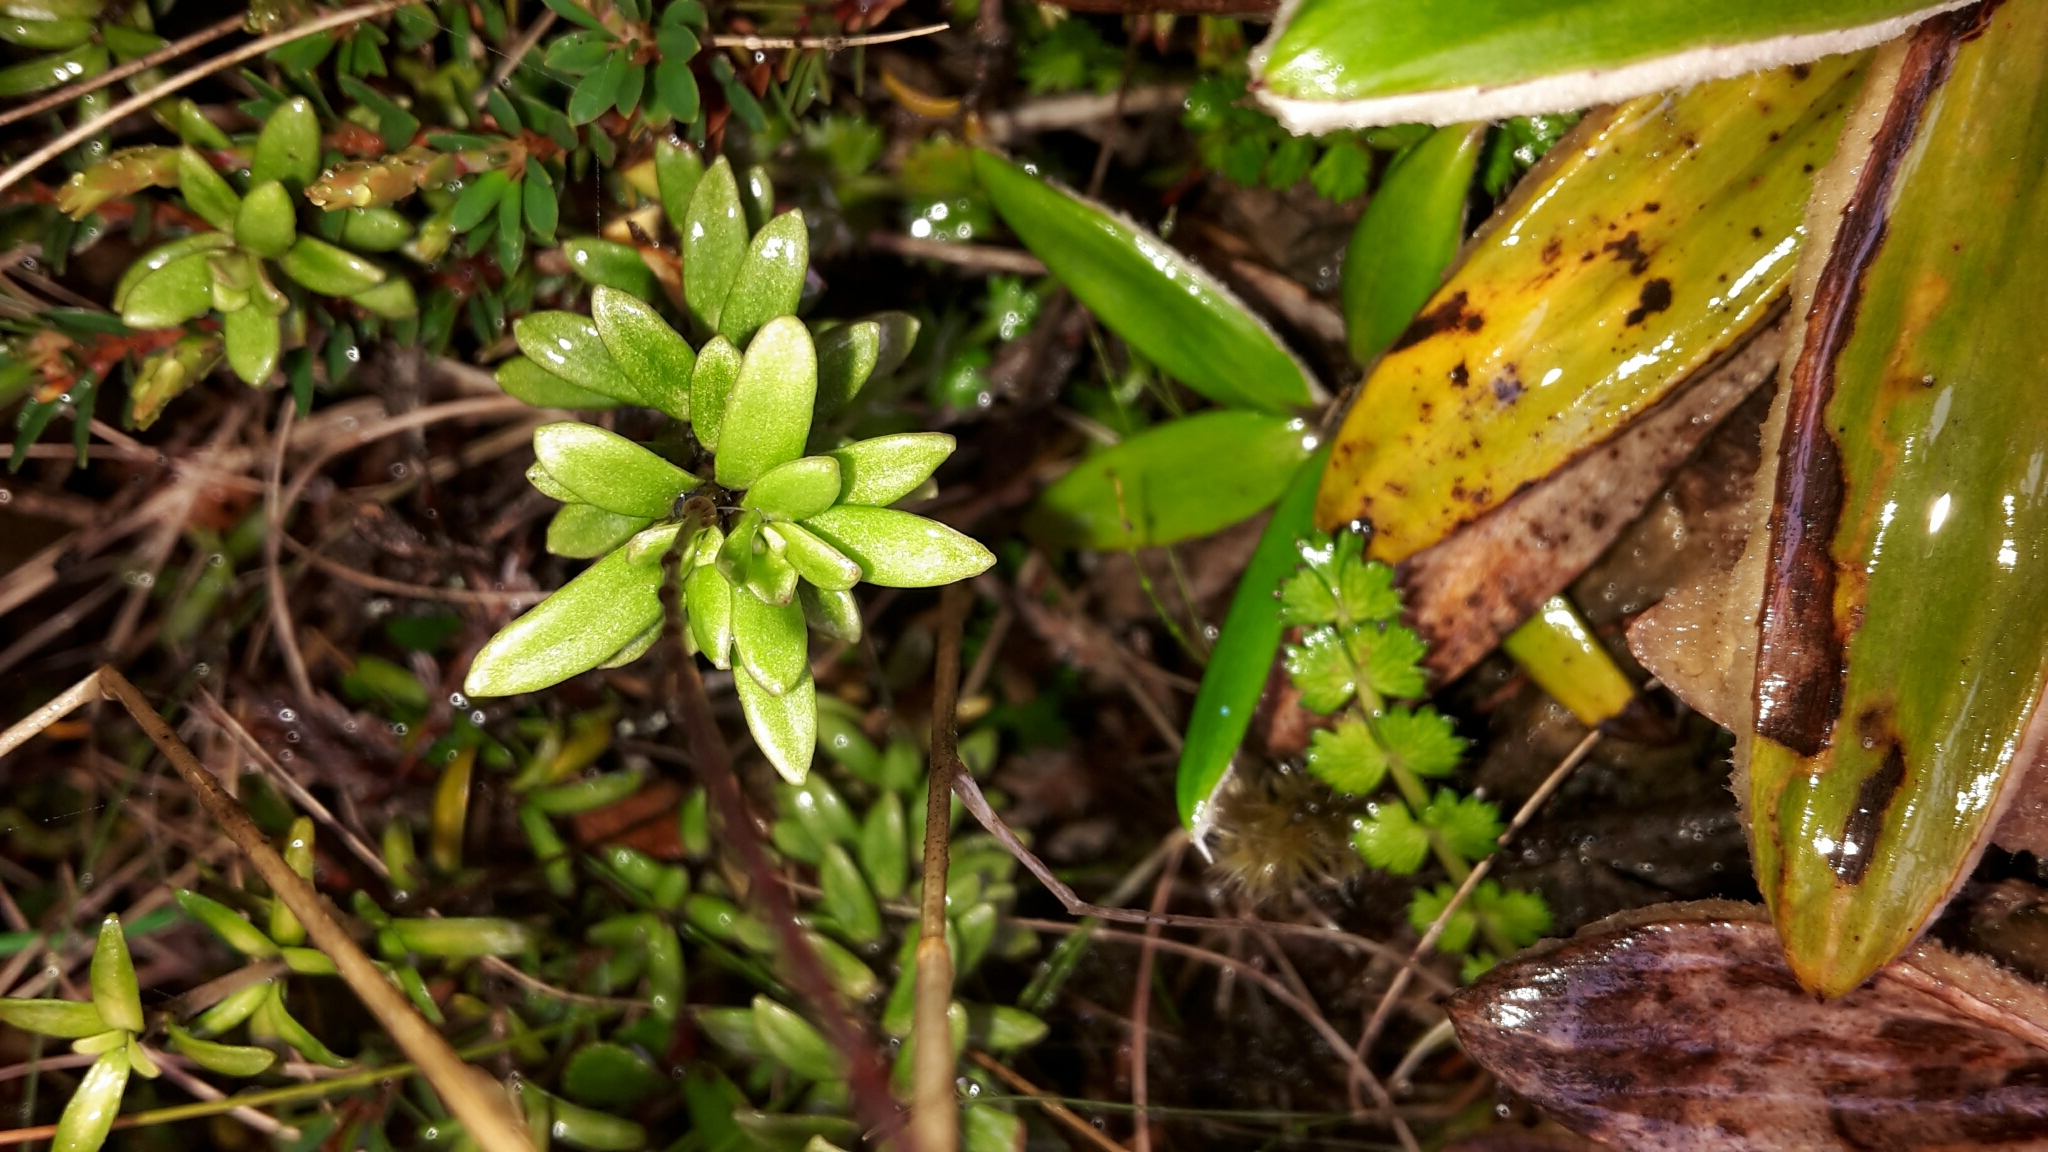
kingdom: Plantae
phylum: Tracheophyta
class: Magnoliopsida
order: Asterales
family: Stylidiaceae
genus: Forstera
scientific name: Forstera tenella
